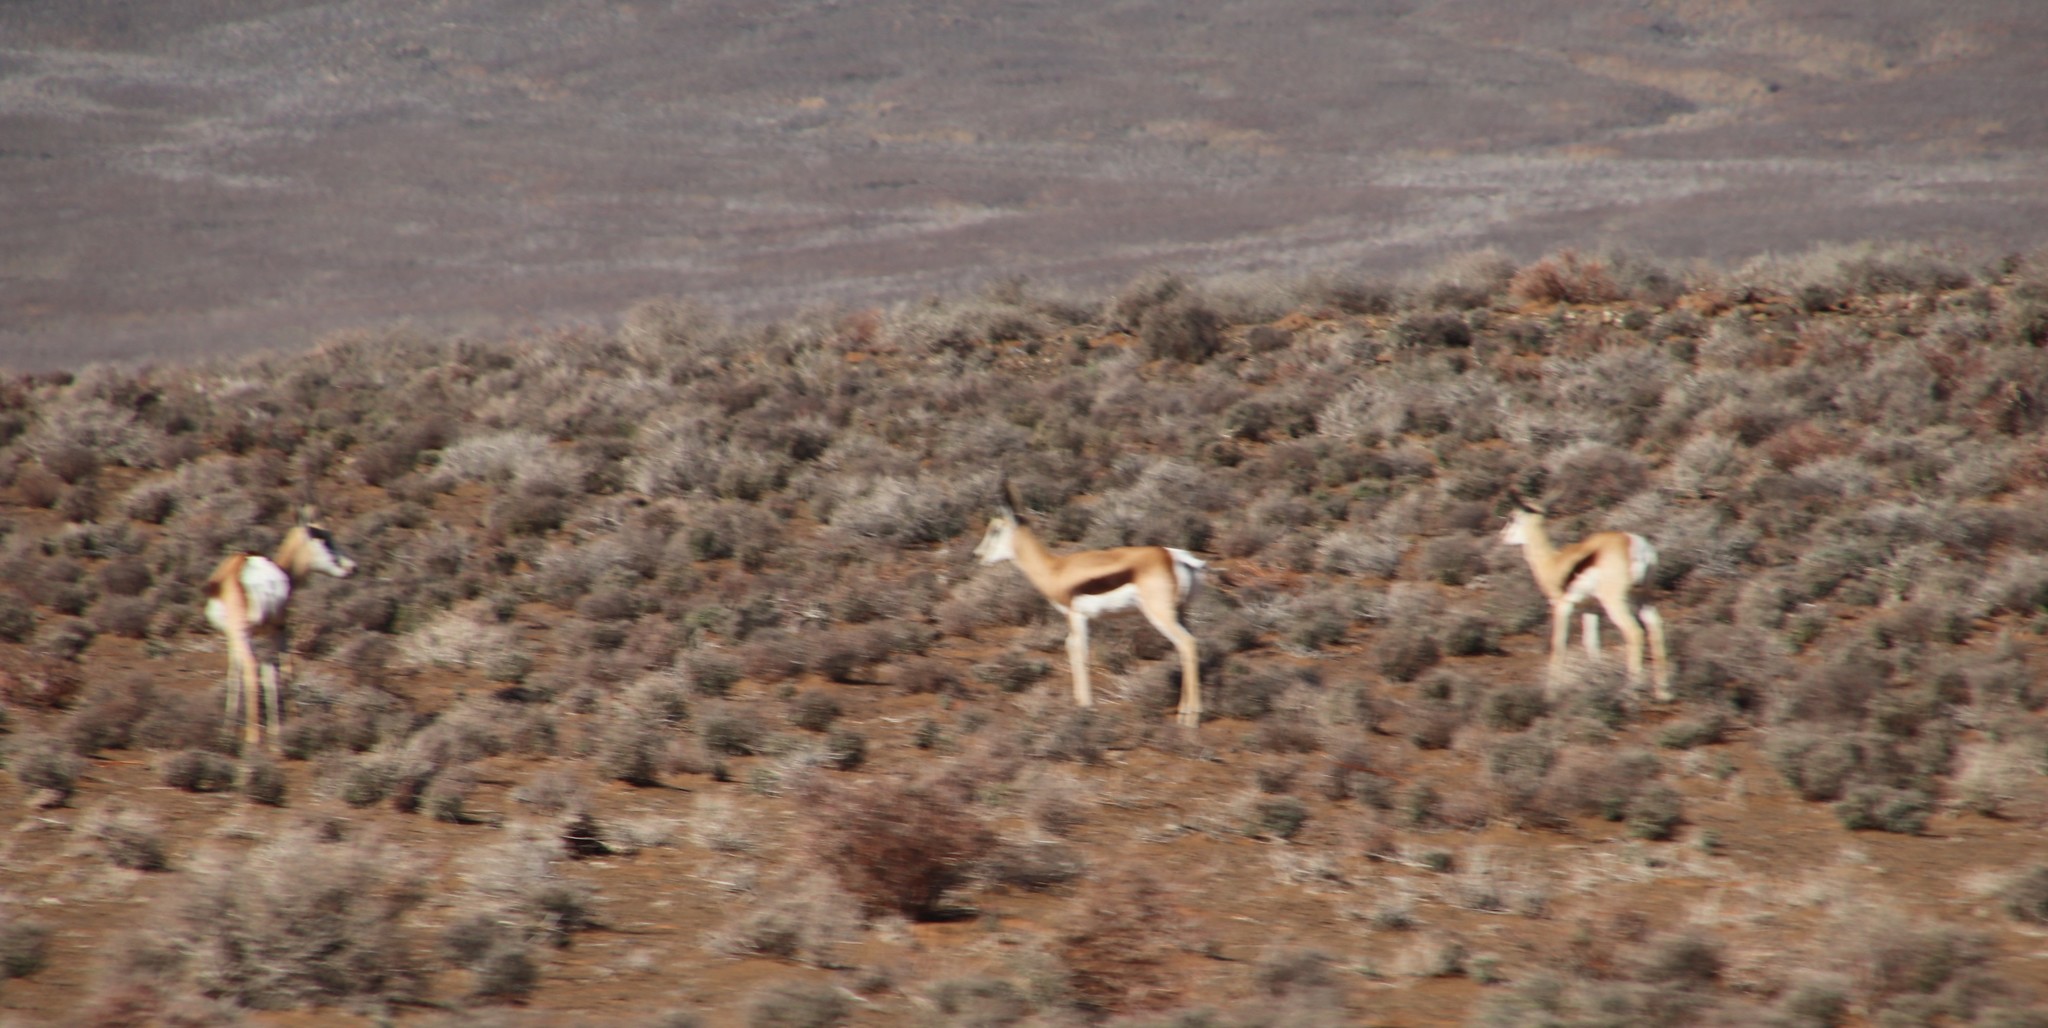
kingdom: Animalia
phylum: Chordata
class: Mammalia
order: Artiodactyla
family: Bovidae
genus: Antidorcas
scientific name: Antidorcas marsupialis
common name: Springbok
